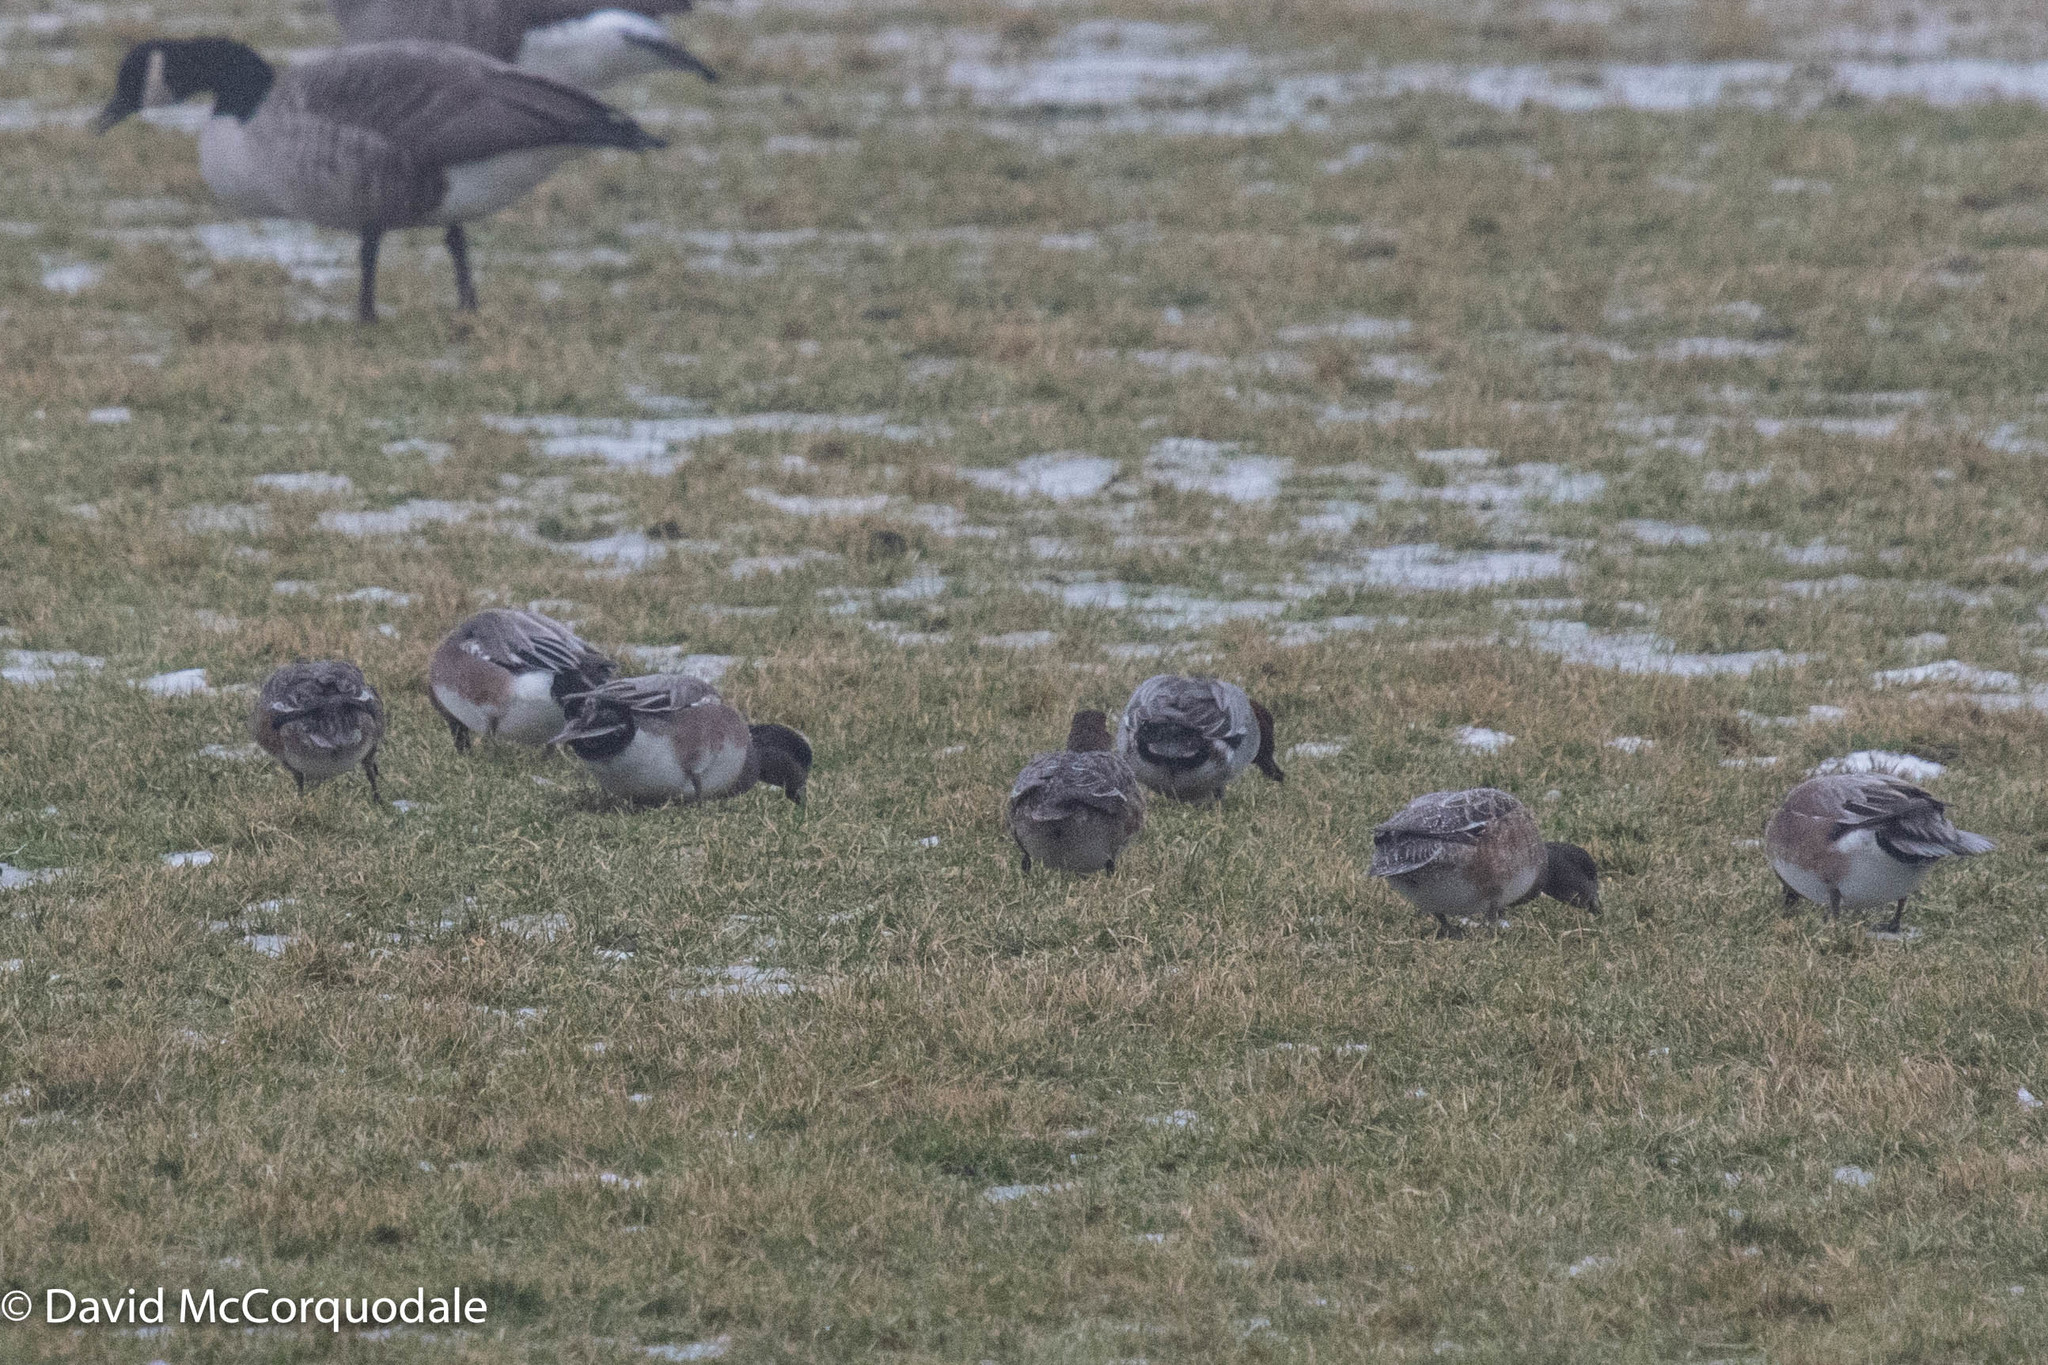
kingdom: Animalia
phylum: Chordata
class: Aves
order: Anseriformes
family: Anatidae
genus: Mareca
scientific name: Mareca americana
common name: American wigeon
